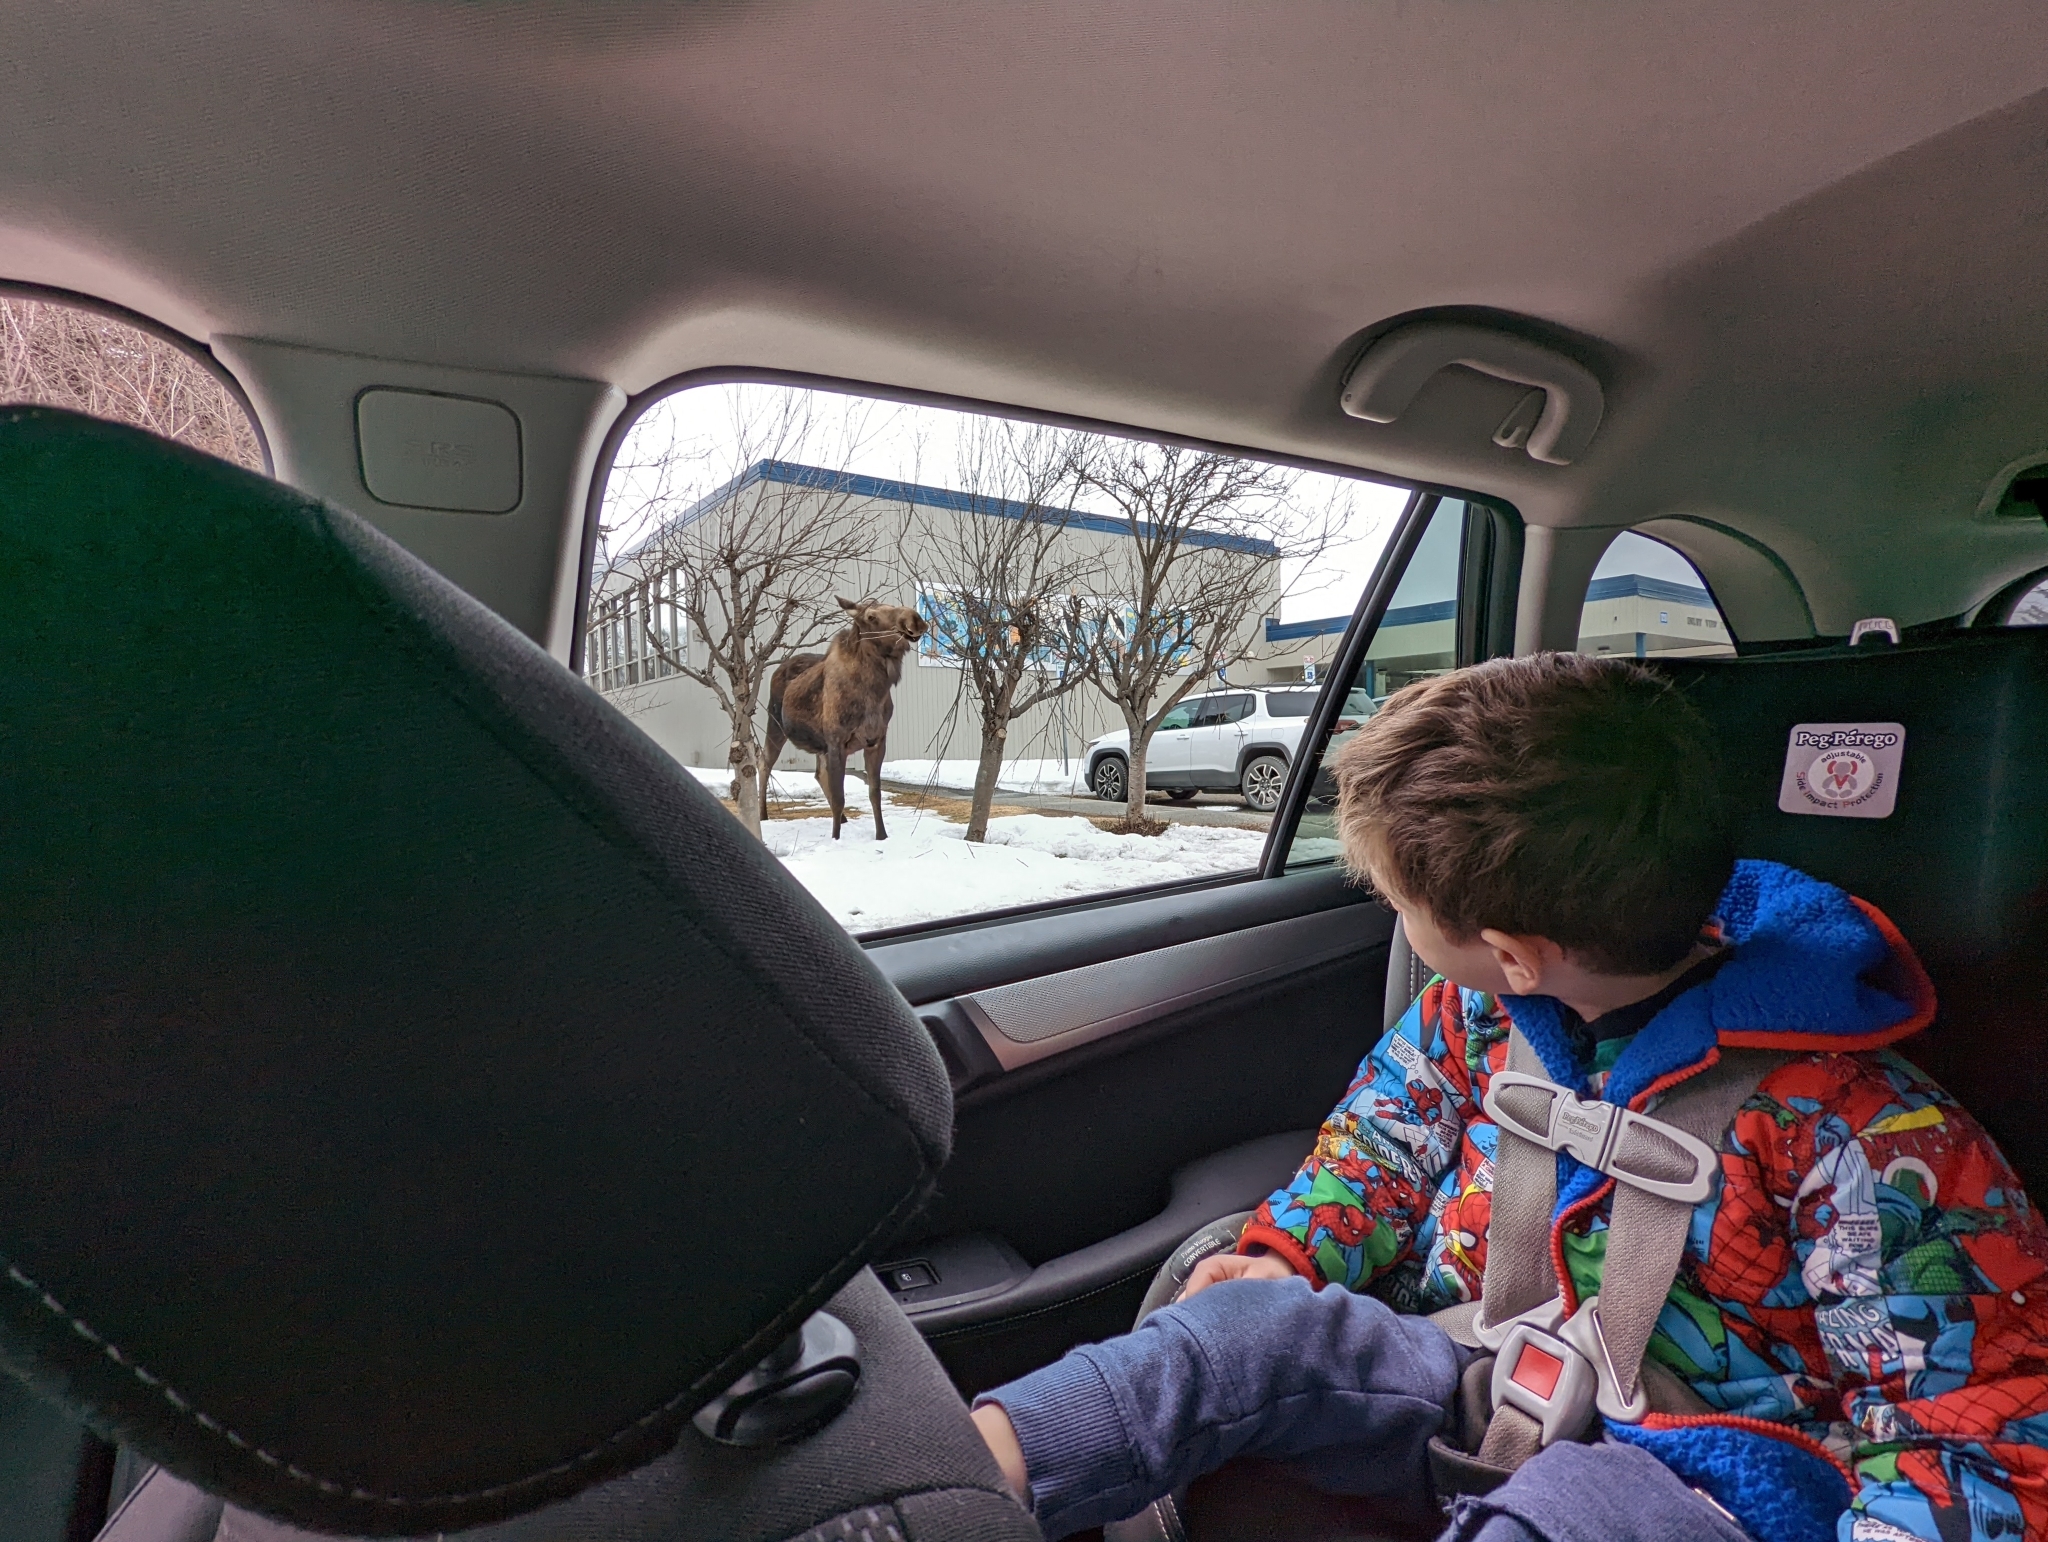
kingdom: Animalia
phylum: Chordata
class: Mammalia
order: Artiodactyla
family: Cervidae
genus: Alces
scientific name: Alces alces
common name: Moose
